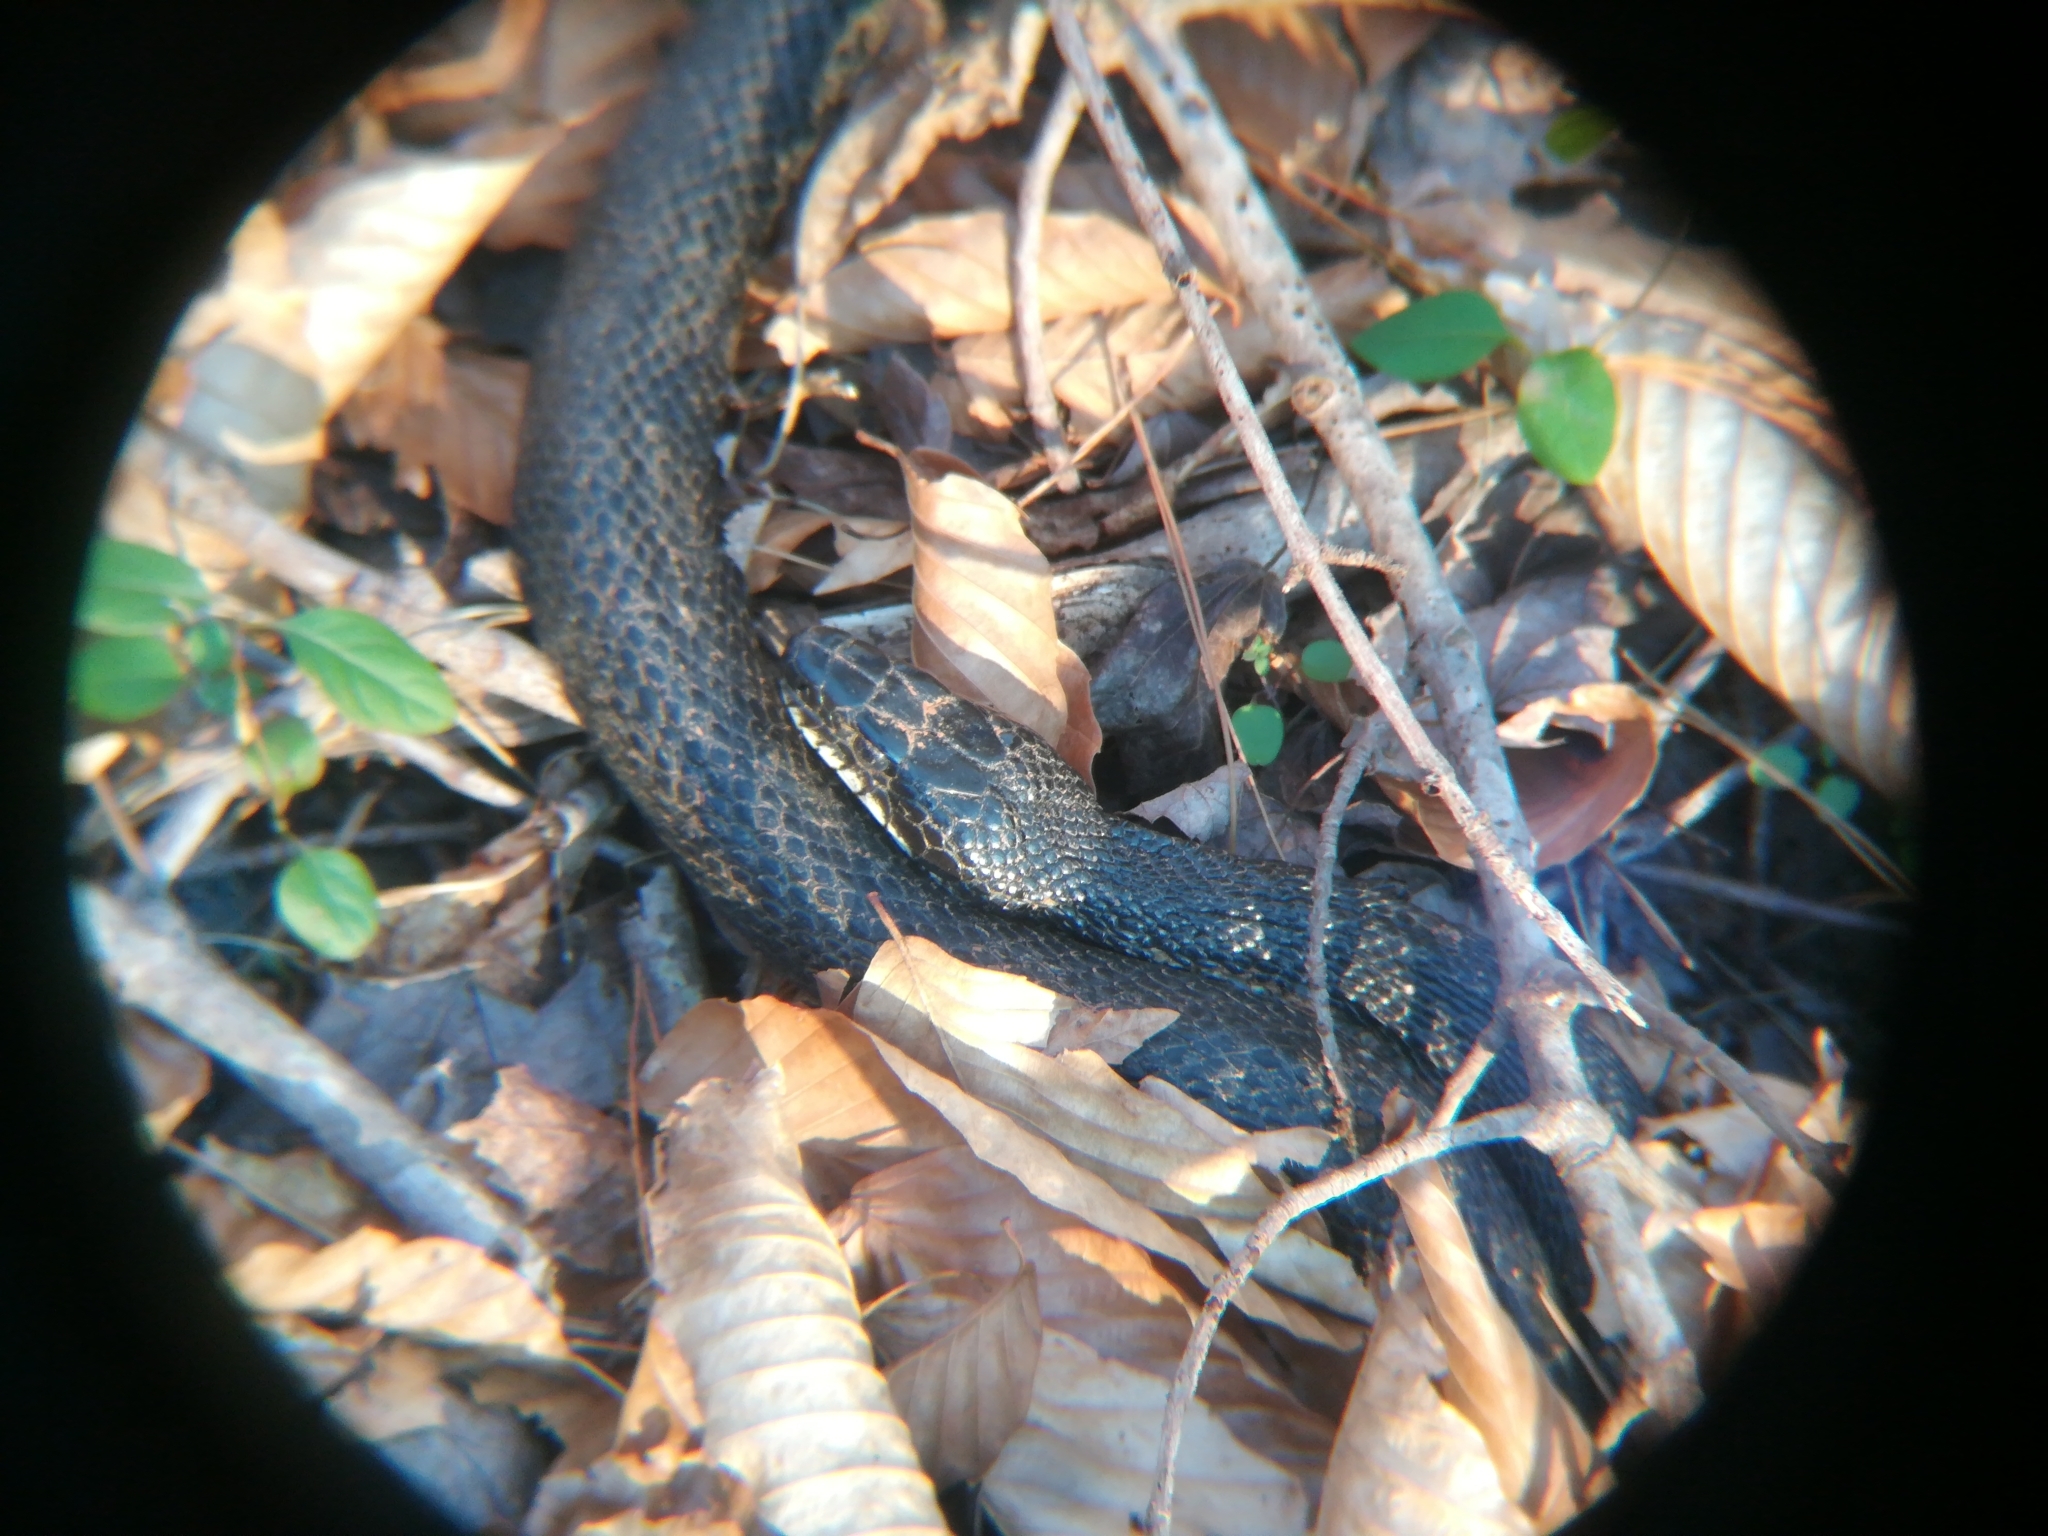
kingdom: Animalia
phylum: Chordata
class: Squamata
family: Colubridae
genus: Pantherophis
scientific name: Pantherophis alleghaniensis
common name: Eastern rat snake
